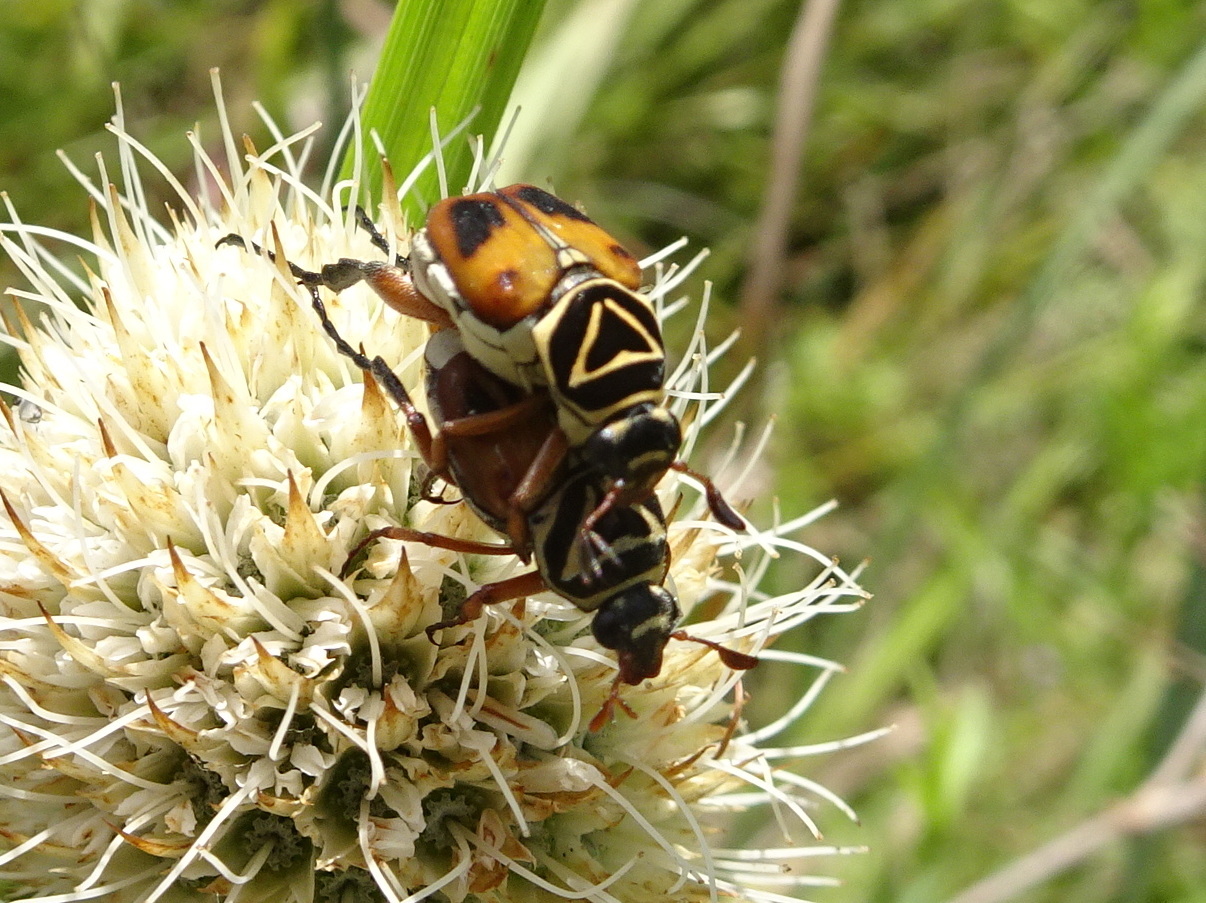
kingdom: Animalia
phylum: Arthropoda
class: Insecta
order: Coleoptera
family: Scarabaeidae
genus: Trigonopeltastes
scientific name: Trigonopeltastes delta
